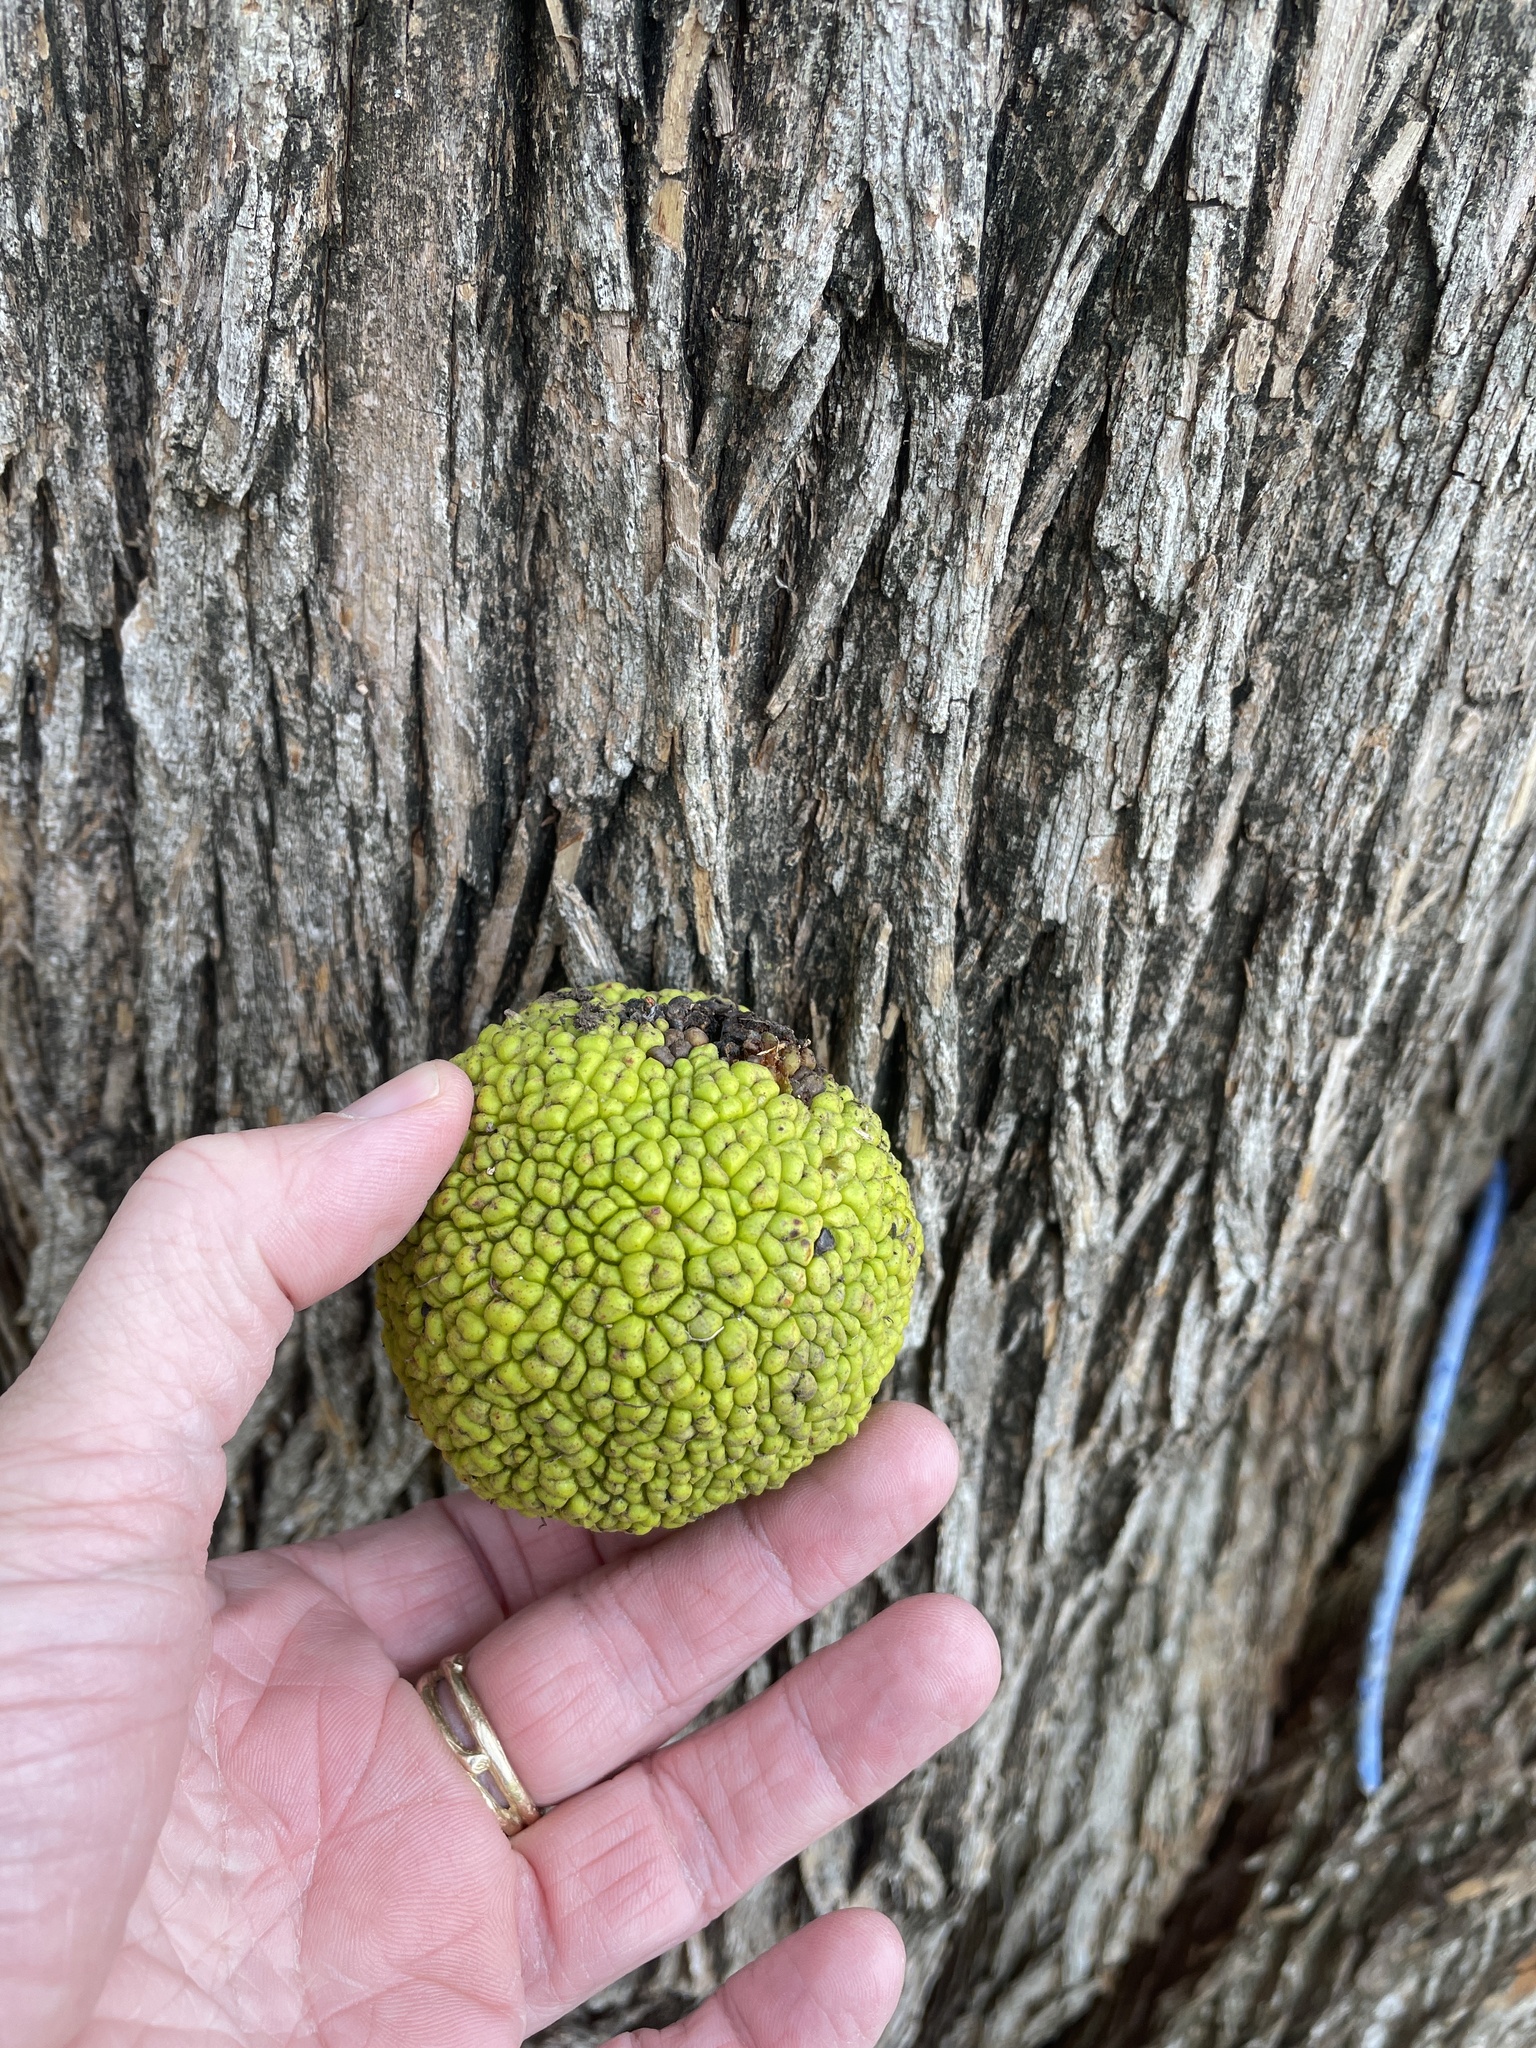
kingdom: Plantae
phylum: Tracheophyta
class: Magnoliopsida
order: Rosales
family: Moraceae
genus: Maclura
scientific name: Maclura pomifera
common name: Osage-orange
